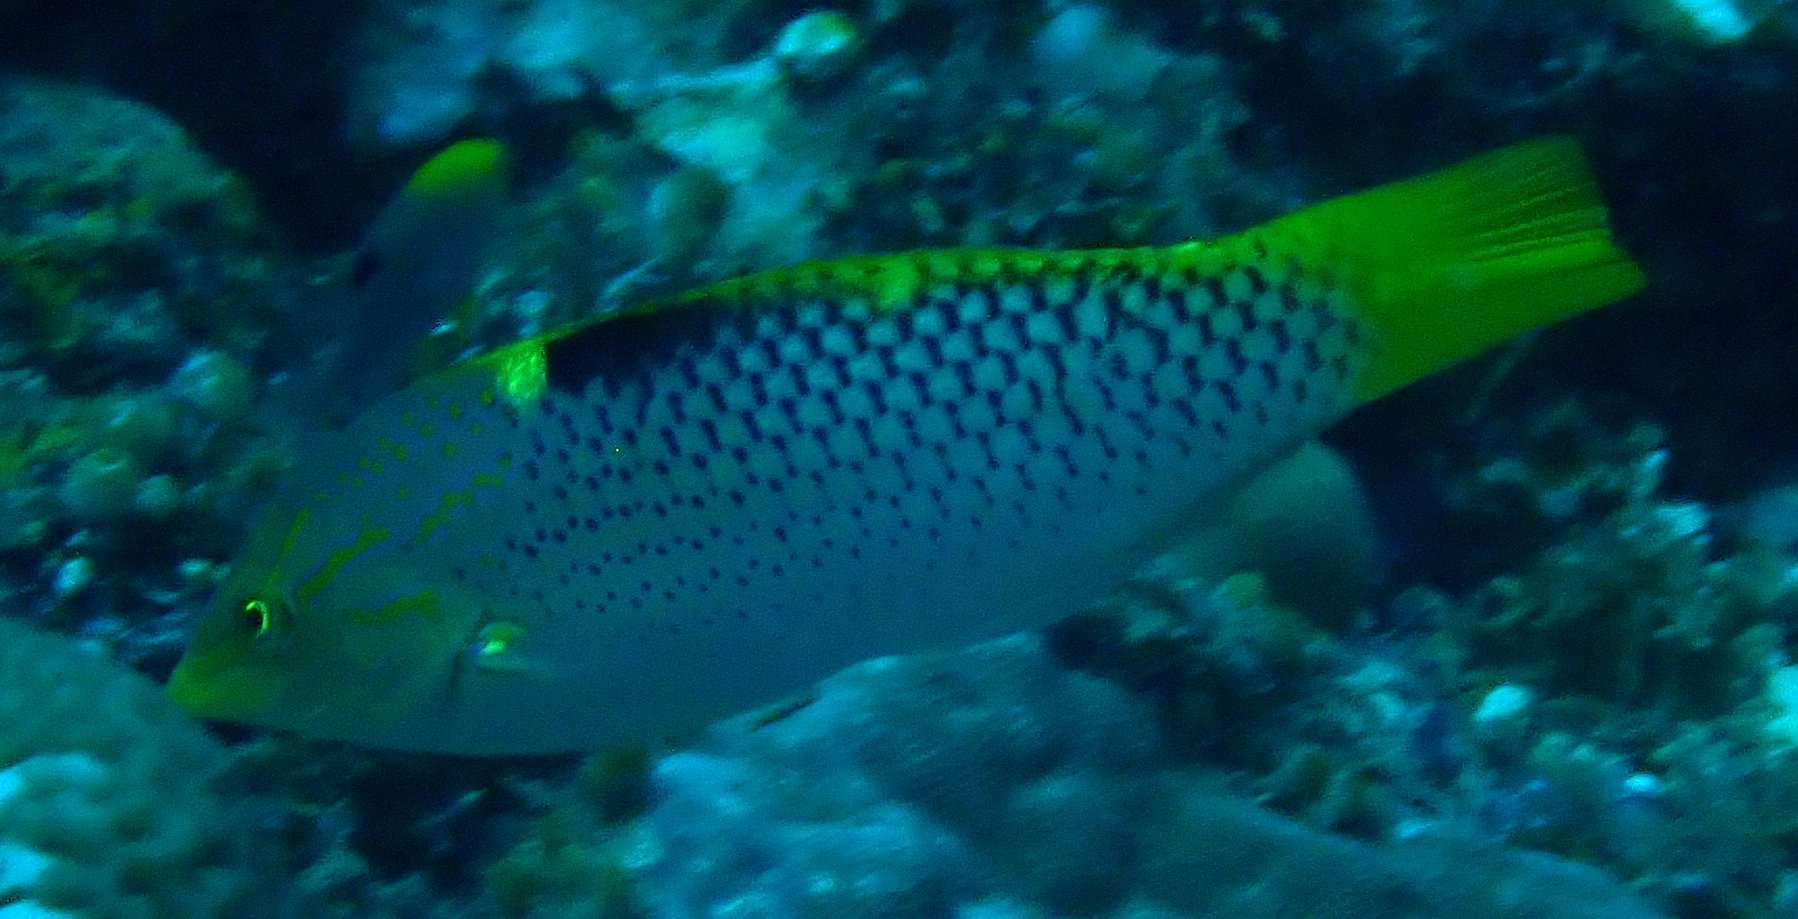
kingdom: Animalia
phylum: Chordata
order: Perciformes
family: Labridae
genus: Halichoeres
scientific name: Halichoeres hortulanus
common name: Checkerboard wrasse
